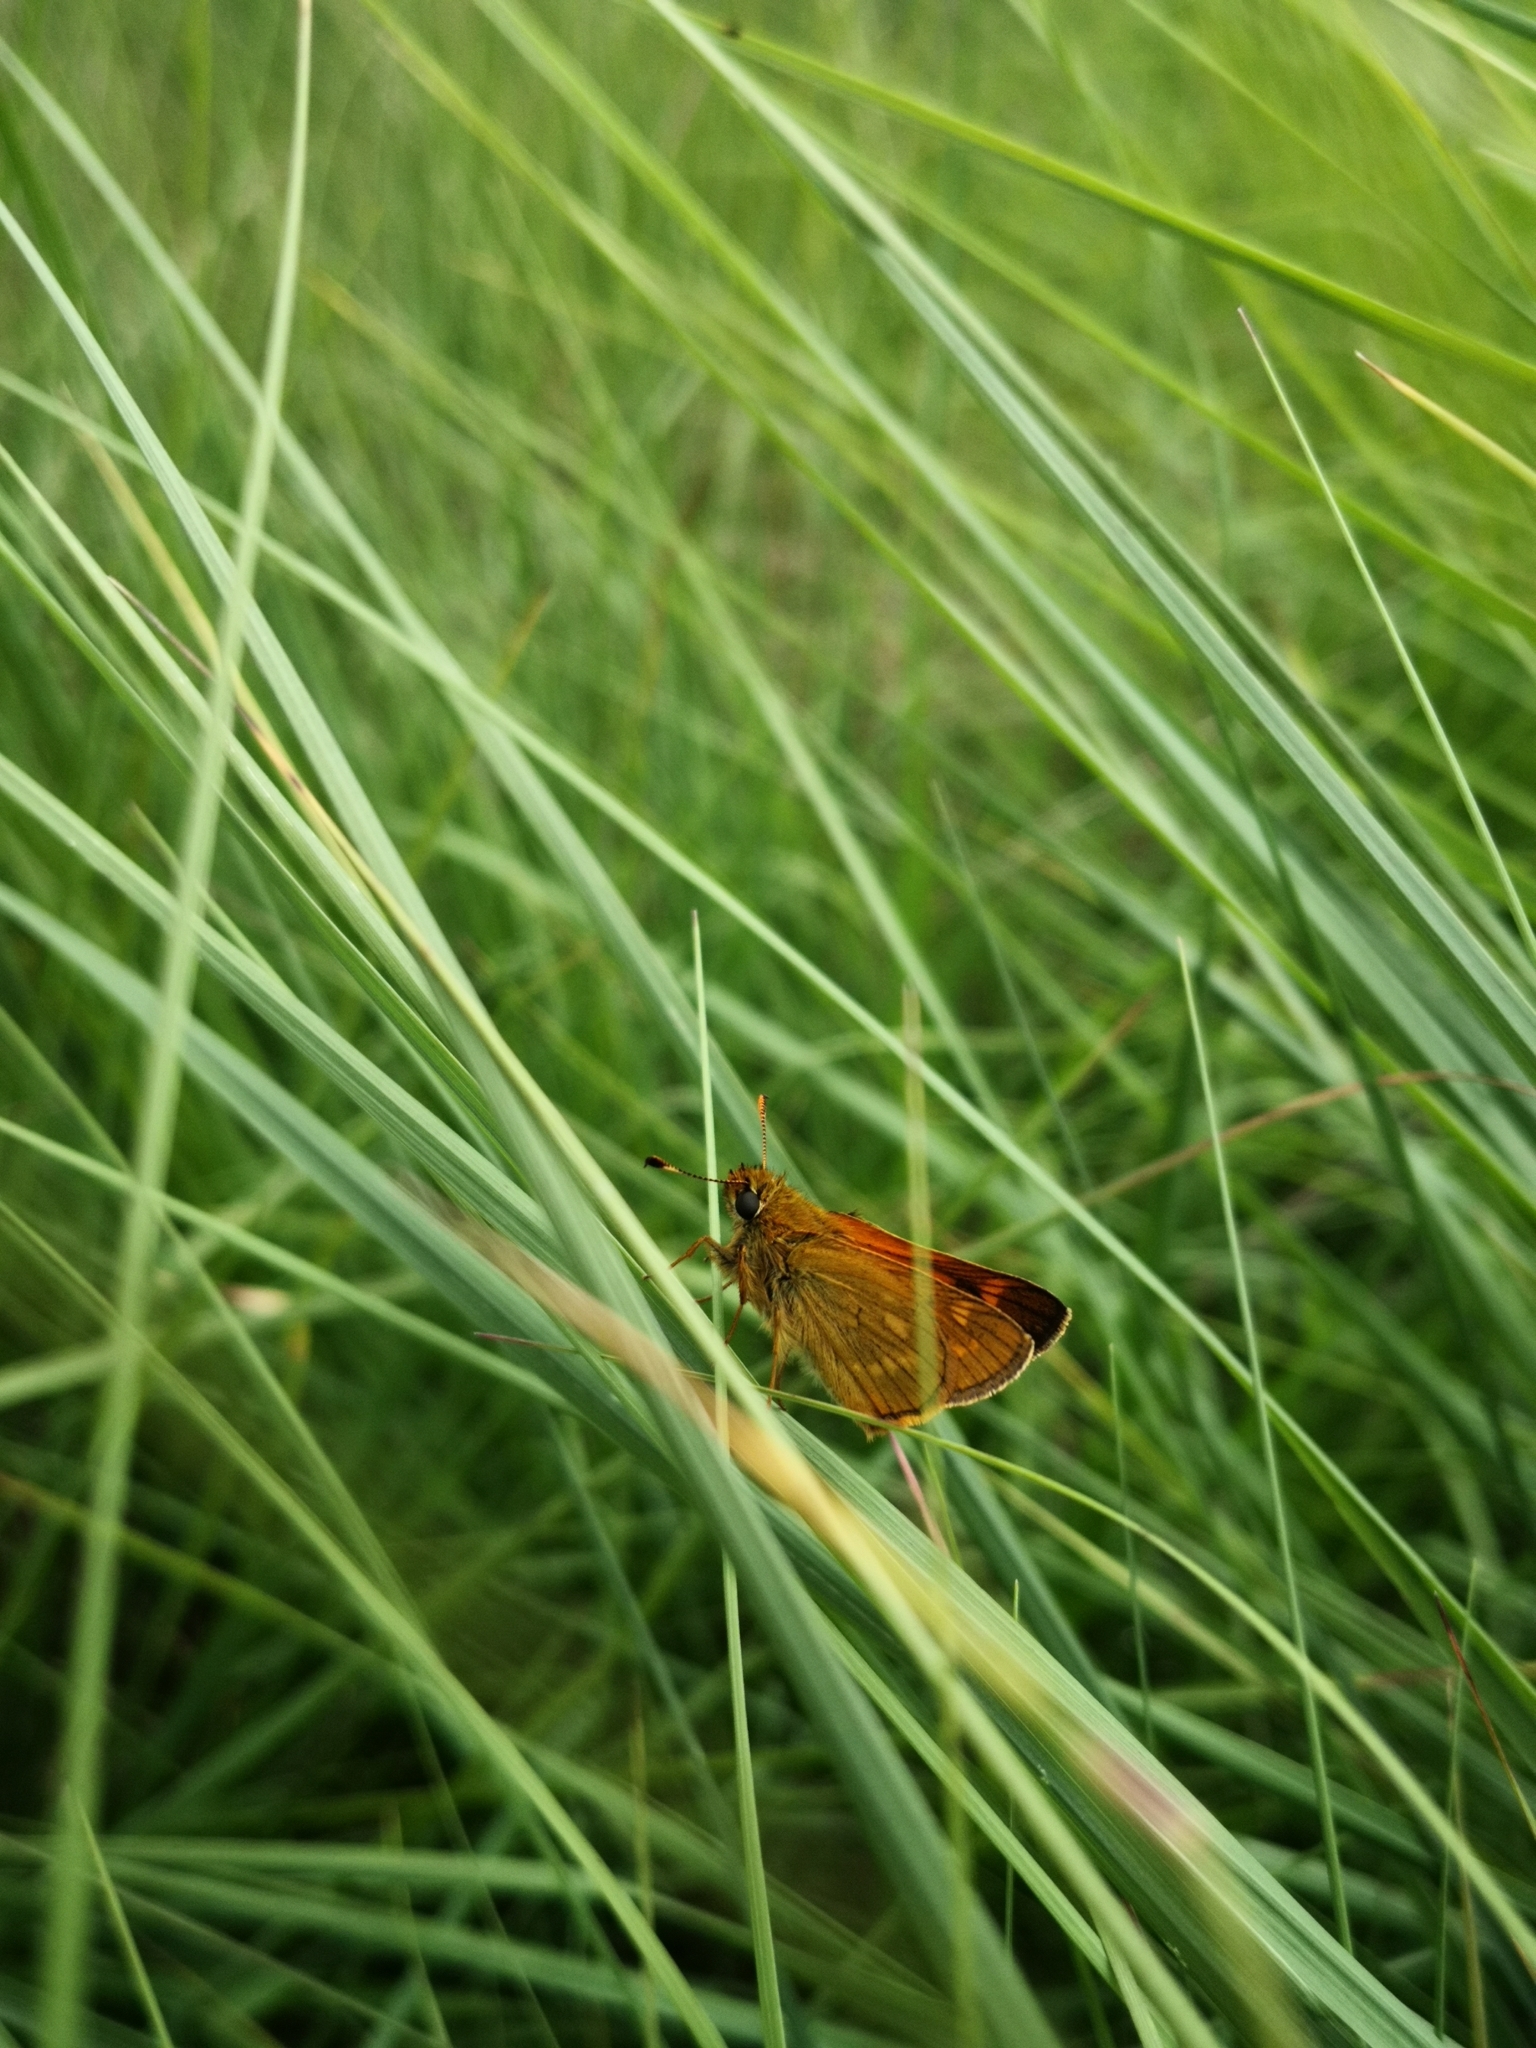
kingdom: Animalia
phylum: Arthropoda
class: Insecta
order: Lepidoptera
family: Hesperiidae
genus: Ochlodes
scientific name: Ochlodes venata
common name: Large skipper
